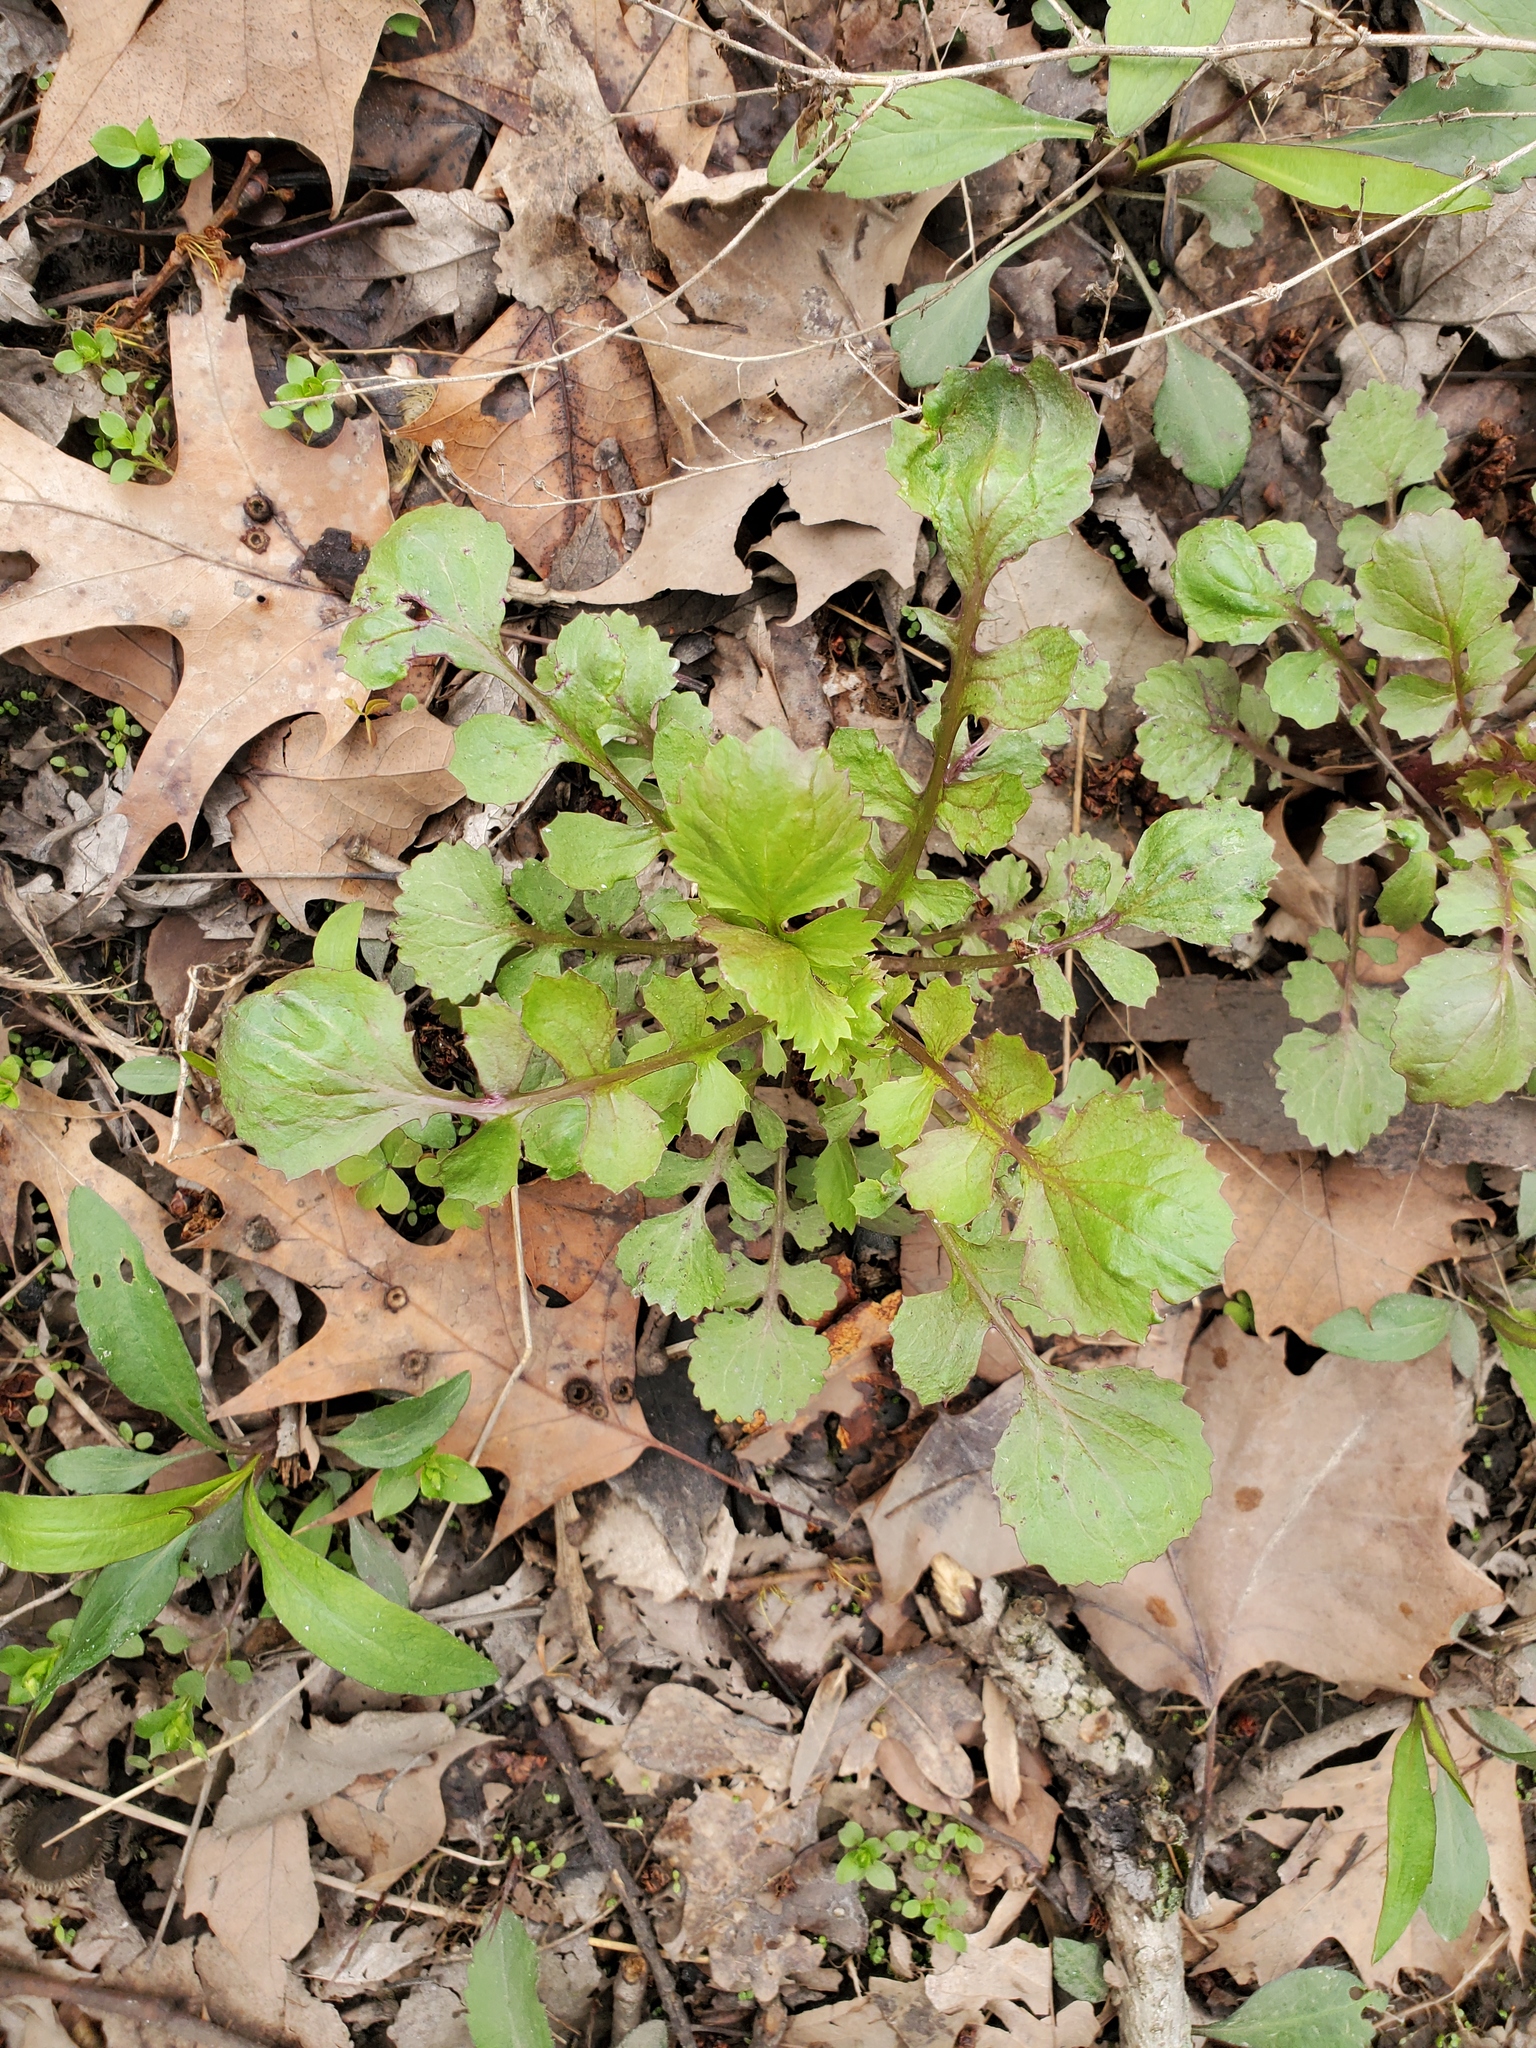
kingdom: Plantae
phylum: Tracheophyta
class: Magnoliopsida
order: Asterales
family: Asteraceae
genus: Packera
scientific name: Packera glabella
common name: Butterweed
